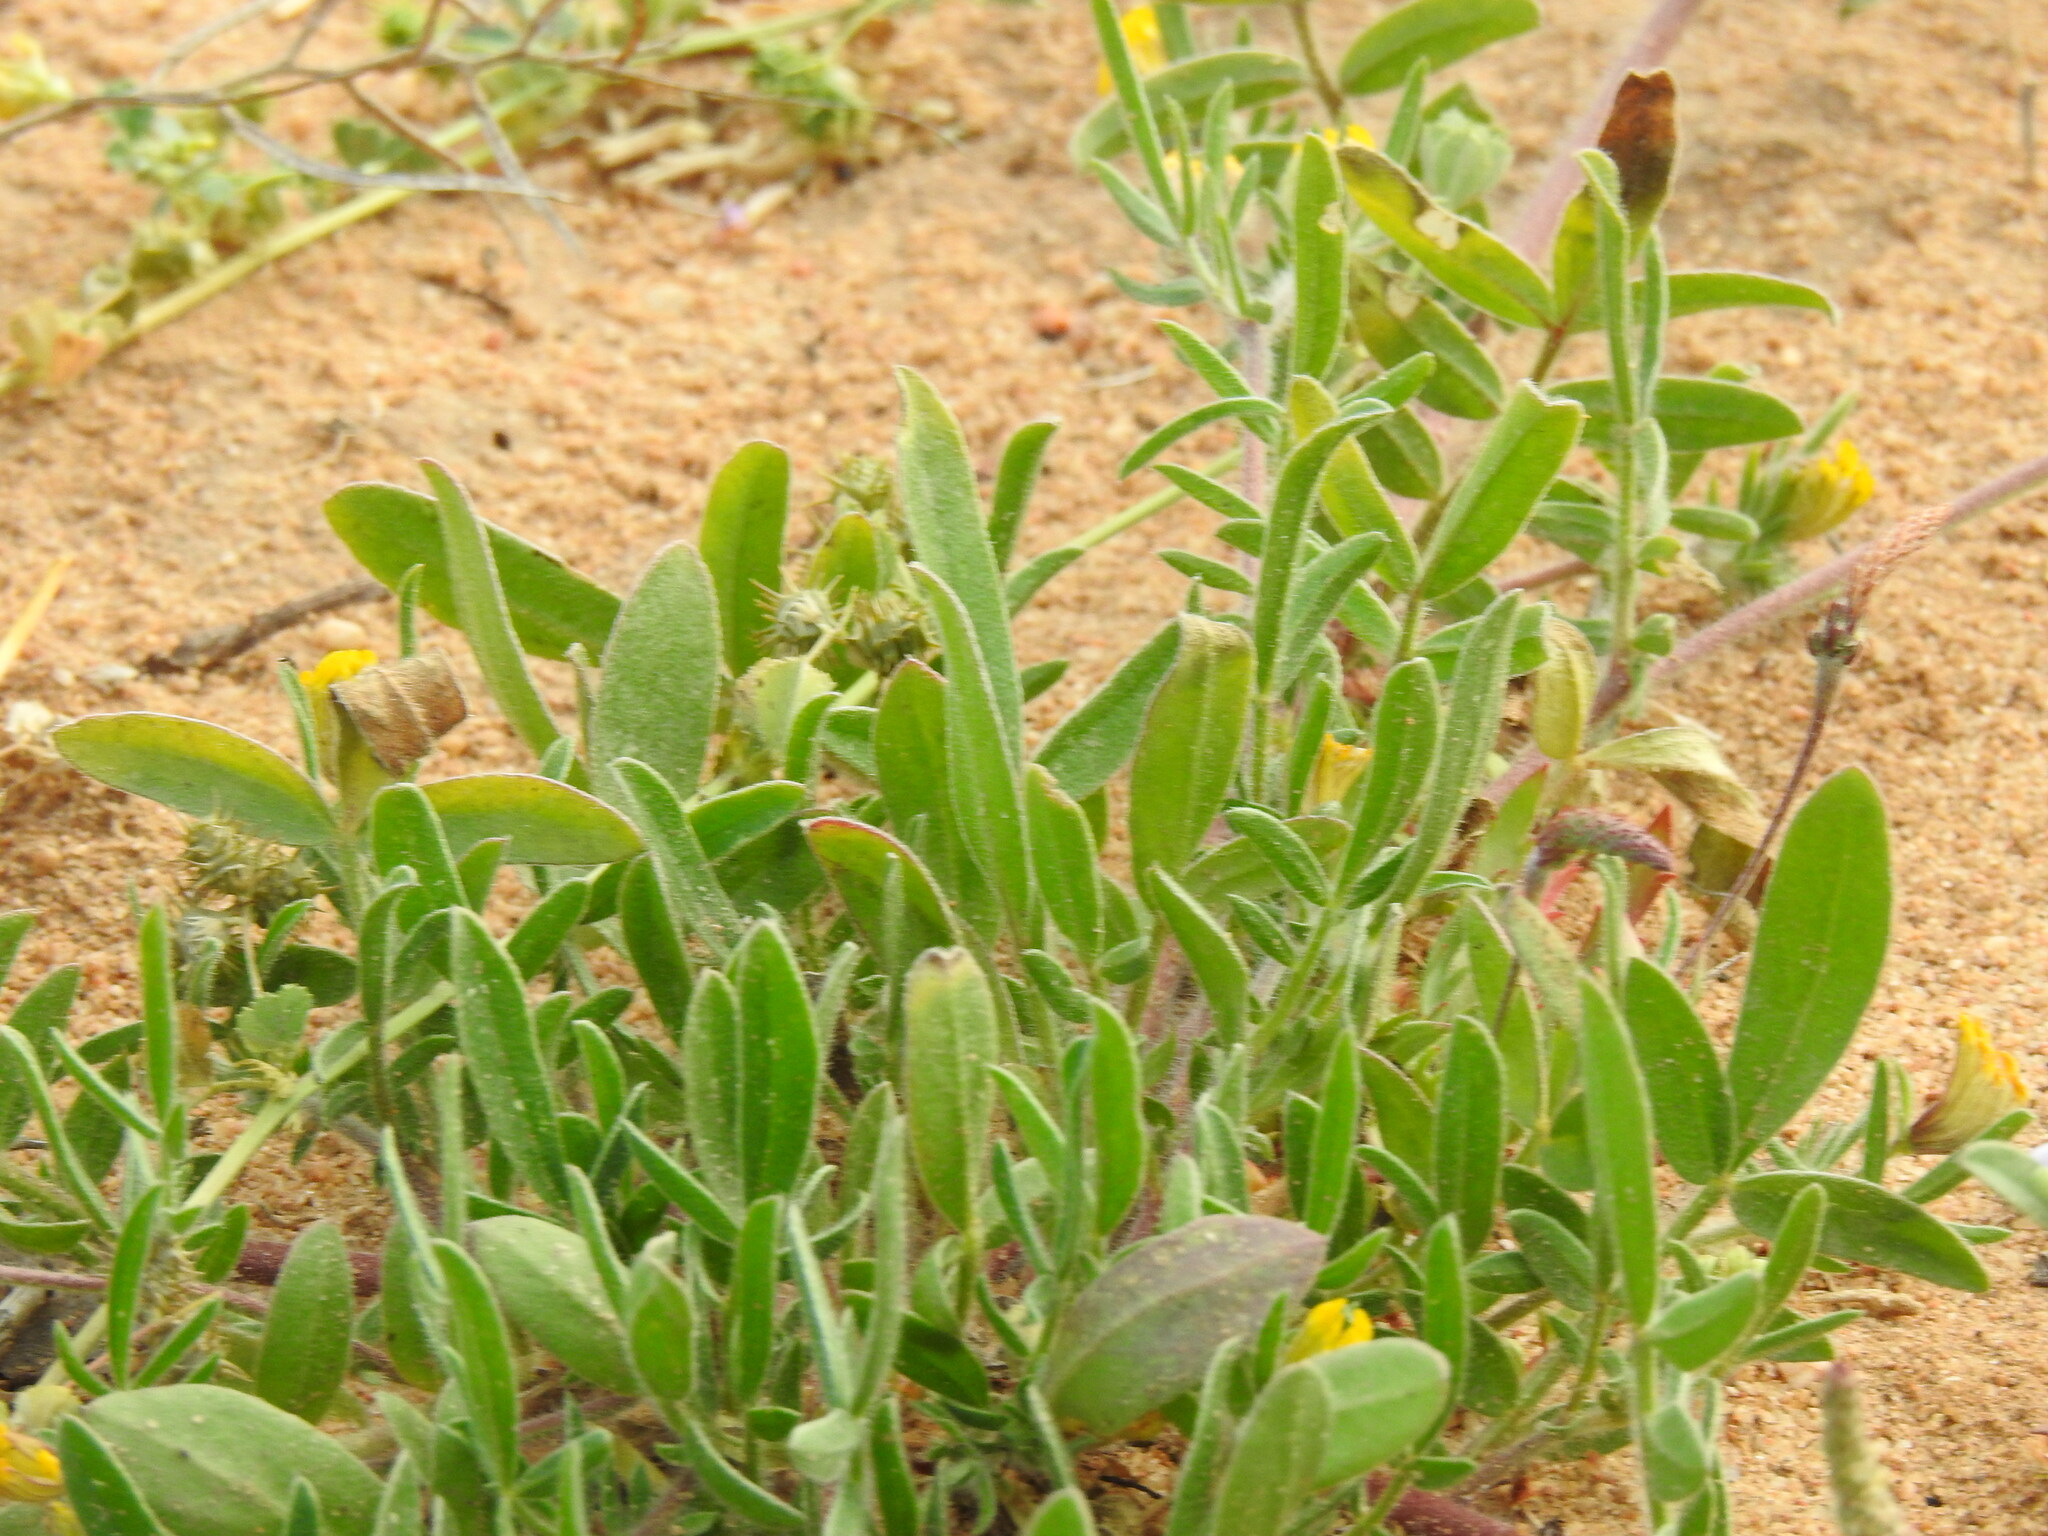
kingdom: Plantae
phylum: Tracheophyta
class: Magnoliopsida
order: Fabales
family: Fabaceae
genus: Anthyllis
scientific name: Anthyllis hamosa
